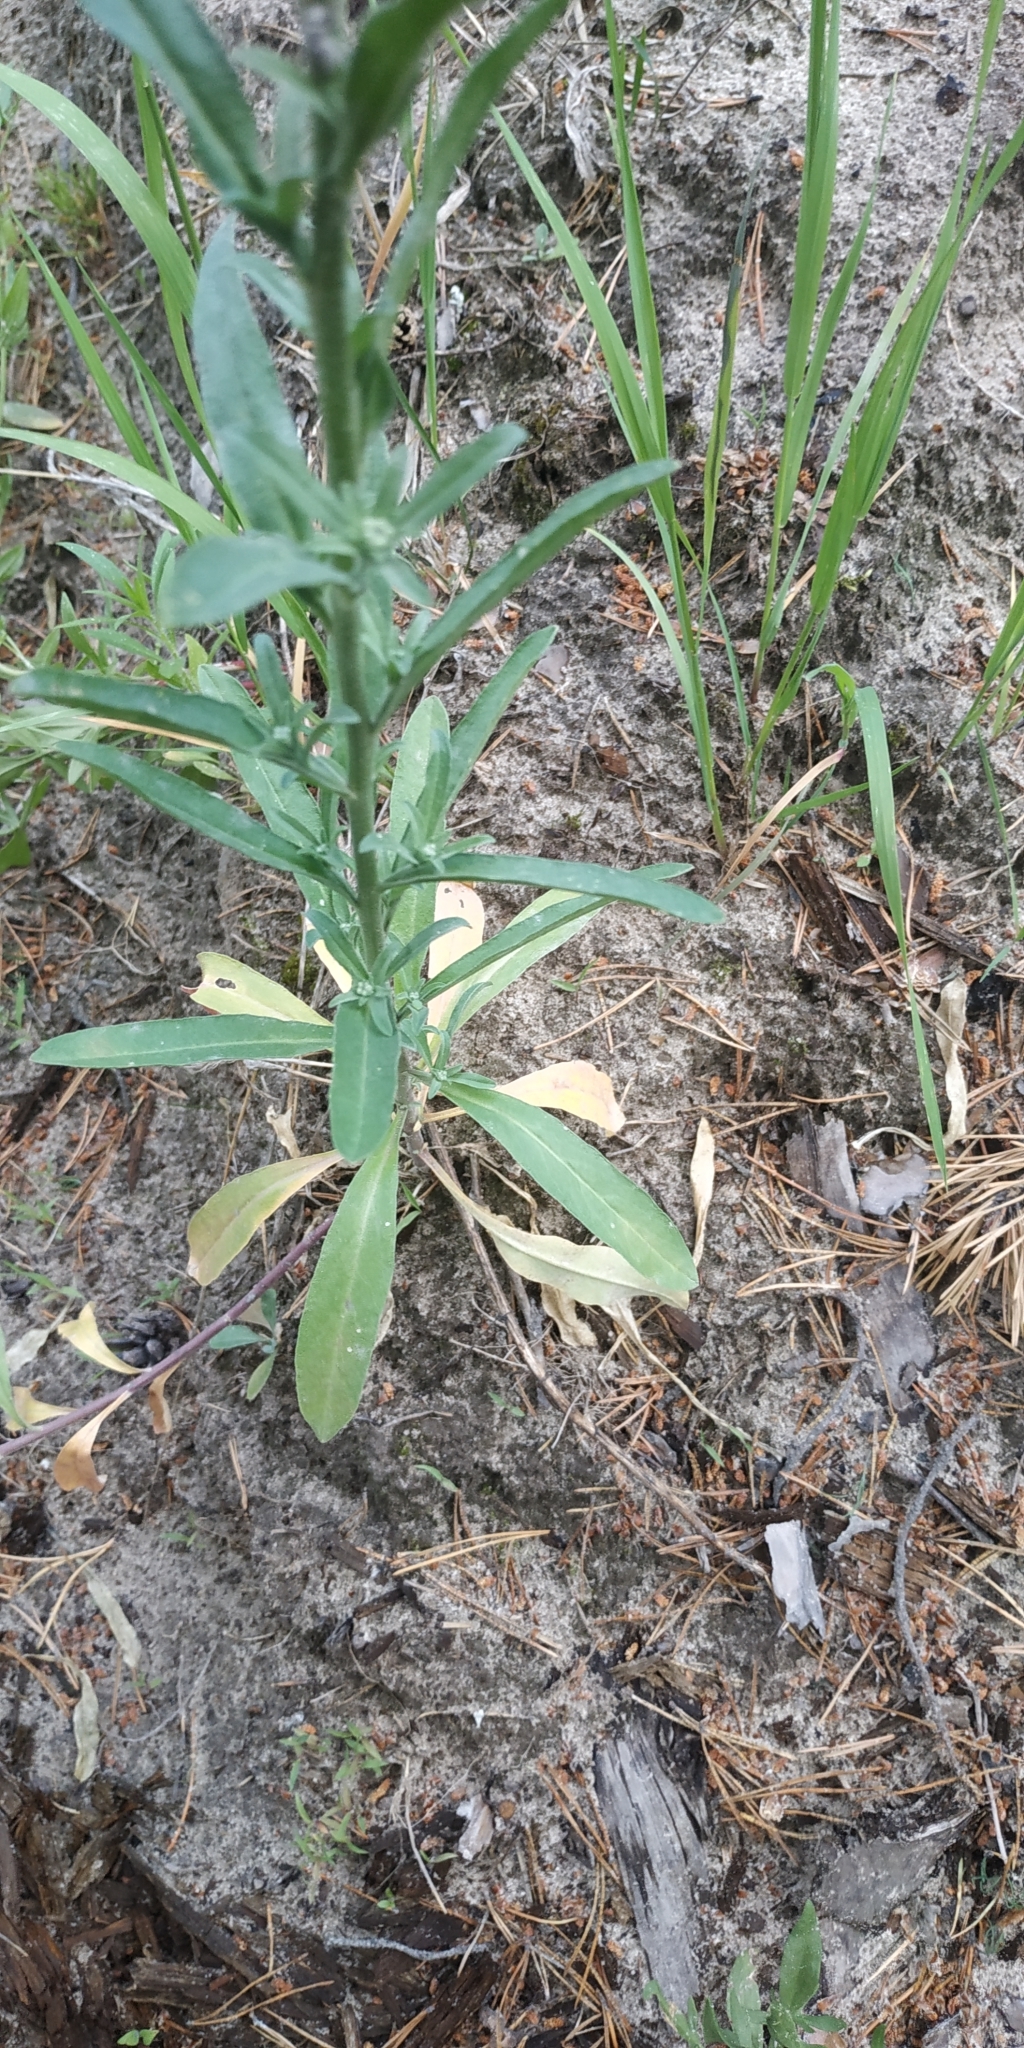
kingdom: Plantae
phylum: Tracheophyta
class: Magnoliopsida
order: Brassicales
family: Brassicaceae
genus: Berteroa
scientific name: Berteroa incana
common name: Hoary alison
